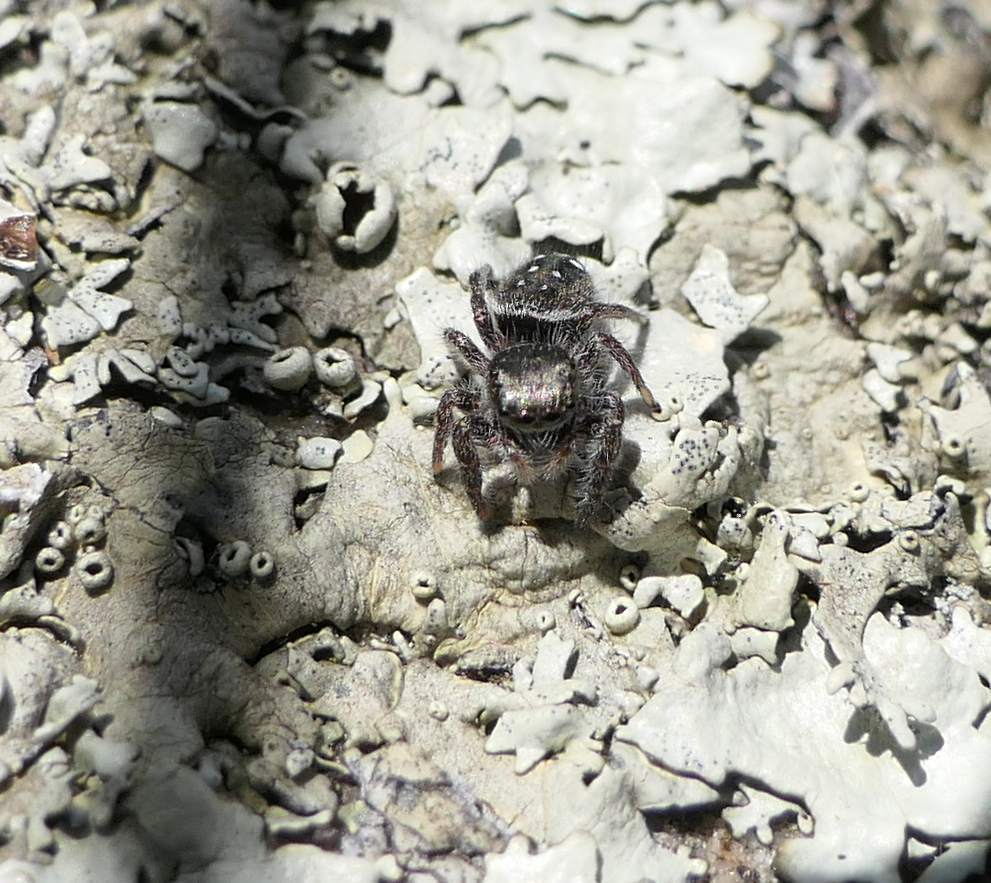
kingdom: Animalia
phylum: Arthropoda
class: Arachnida
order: Araneae
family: Salticidae
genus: Phidippus
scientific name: Phidippus purpuratus
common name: Marbled purple jumping spider
